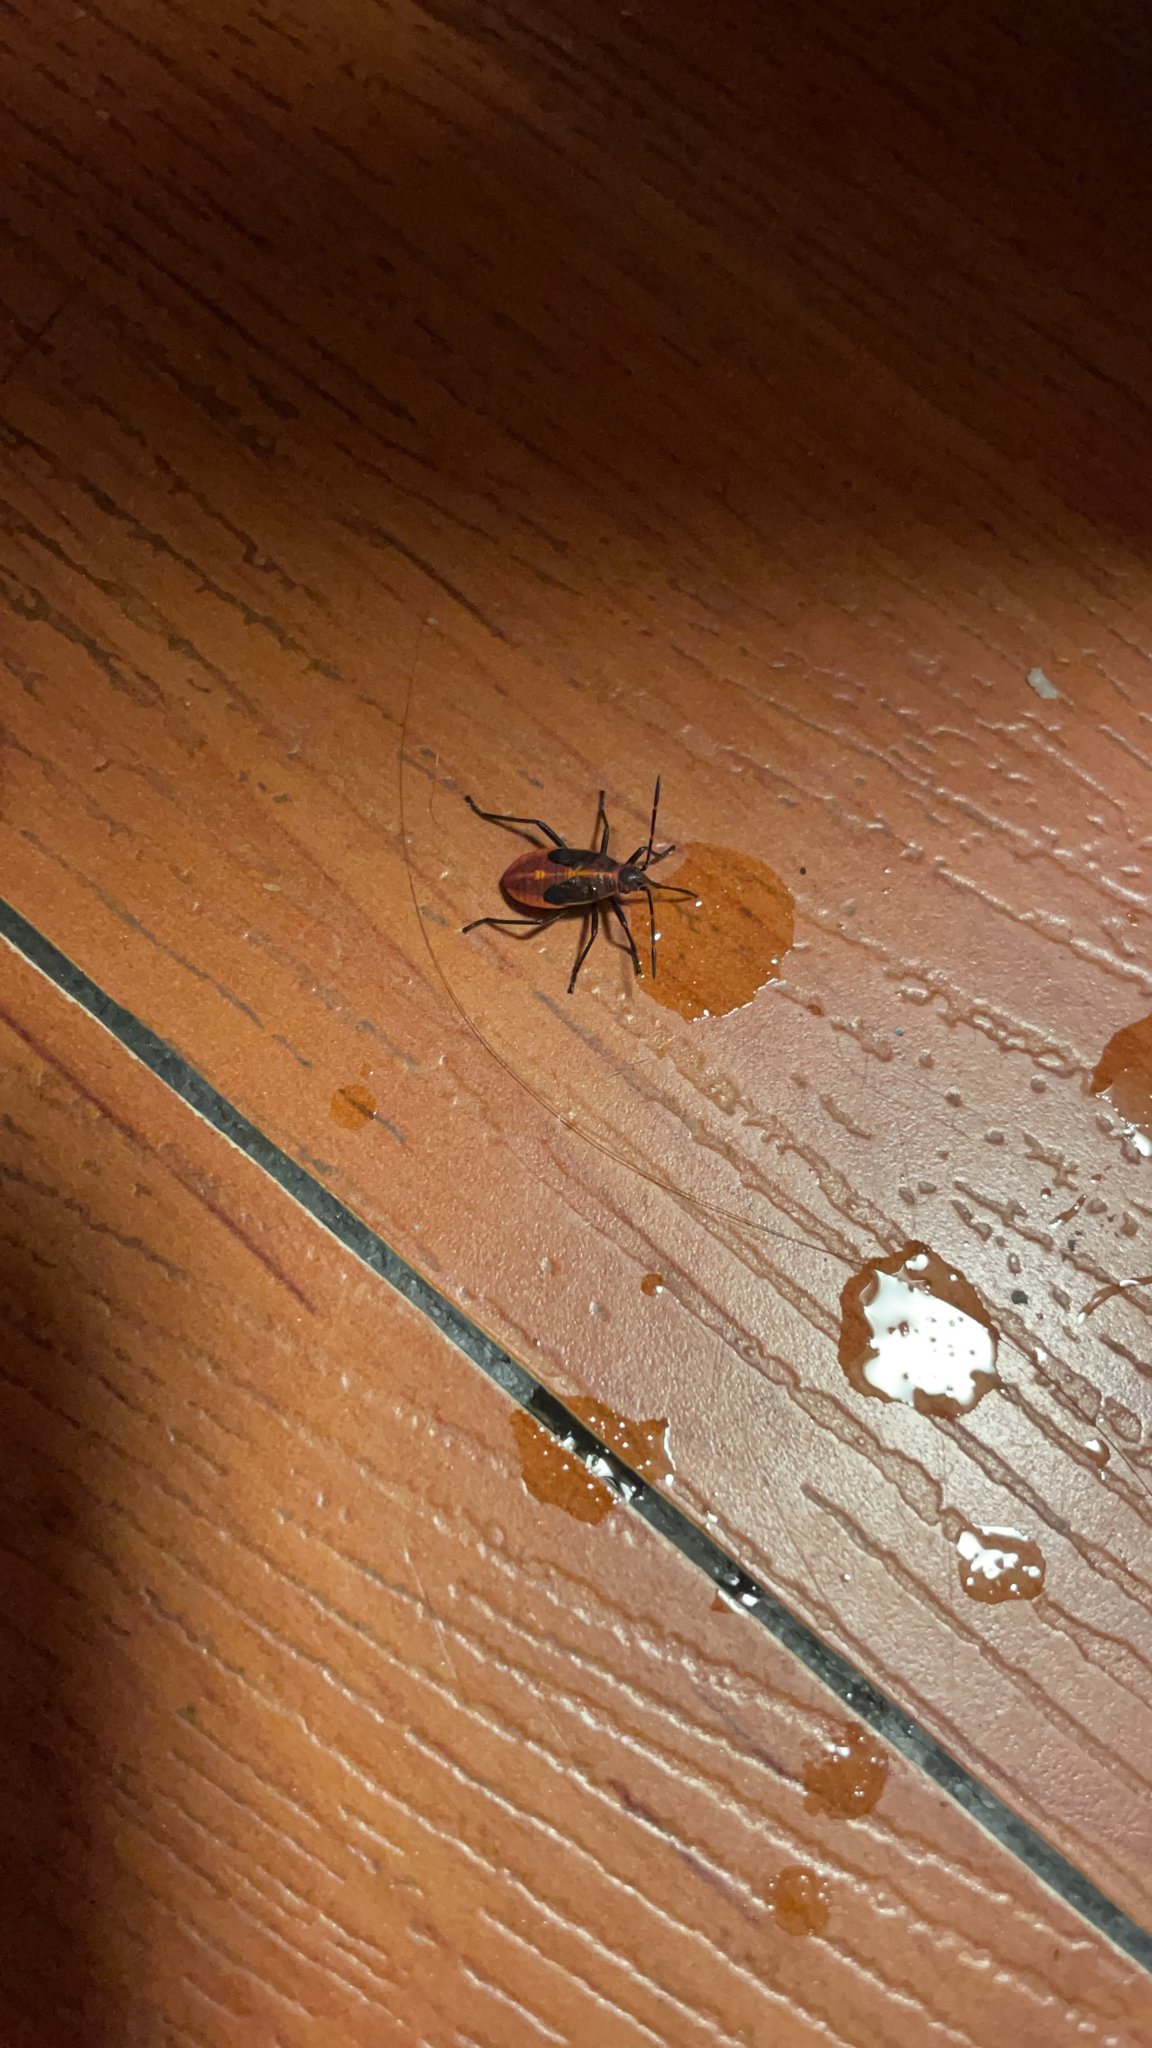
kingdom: Animalia
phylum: Arthropoda
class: Insecta
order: Hemiptera
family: Rhopalidae
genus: Boisea
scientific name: Boisea trivittata
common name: Boxelder bug
